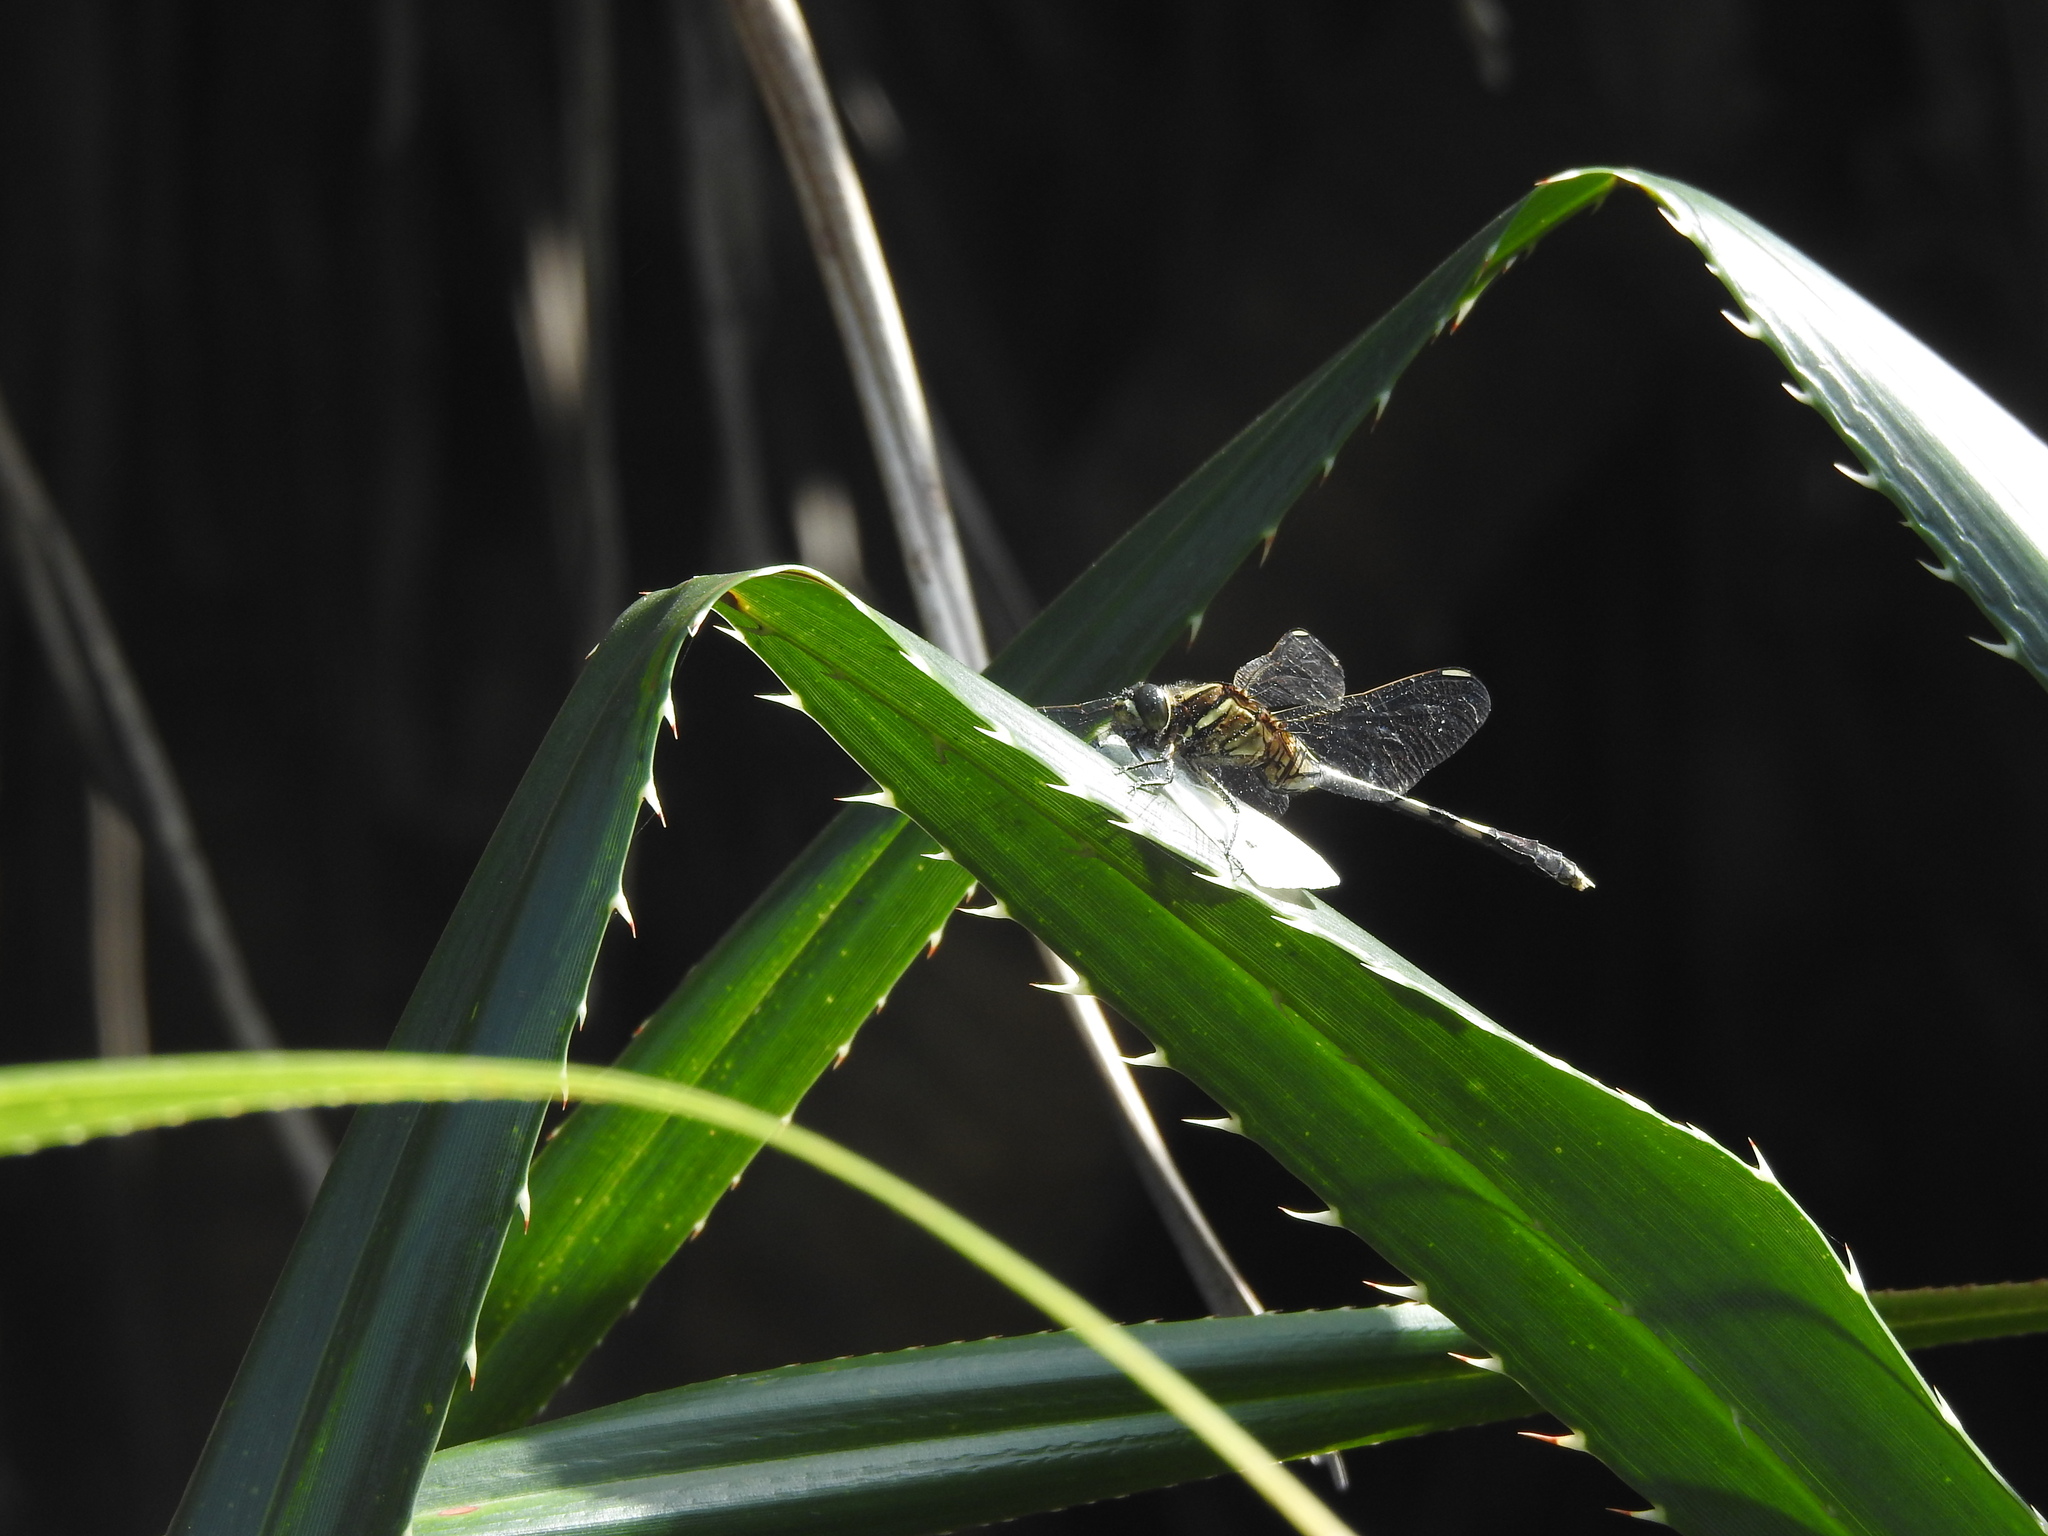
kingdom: Animalia
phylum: Arthropoda
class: Insecta
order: Odonata
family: Libellulidae
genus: Orthetrum
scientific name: Orthetrum sabina
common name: Slender skimmer
